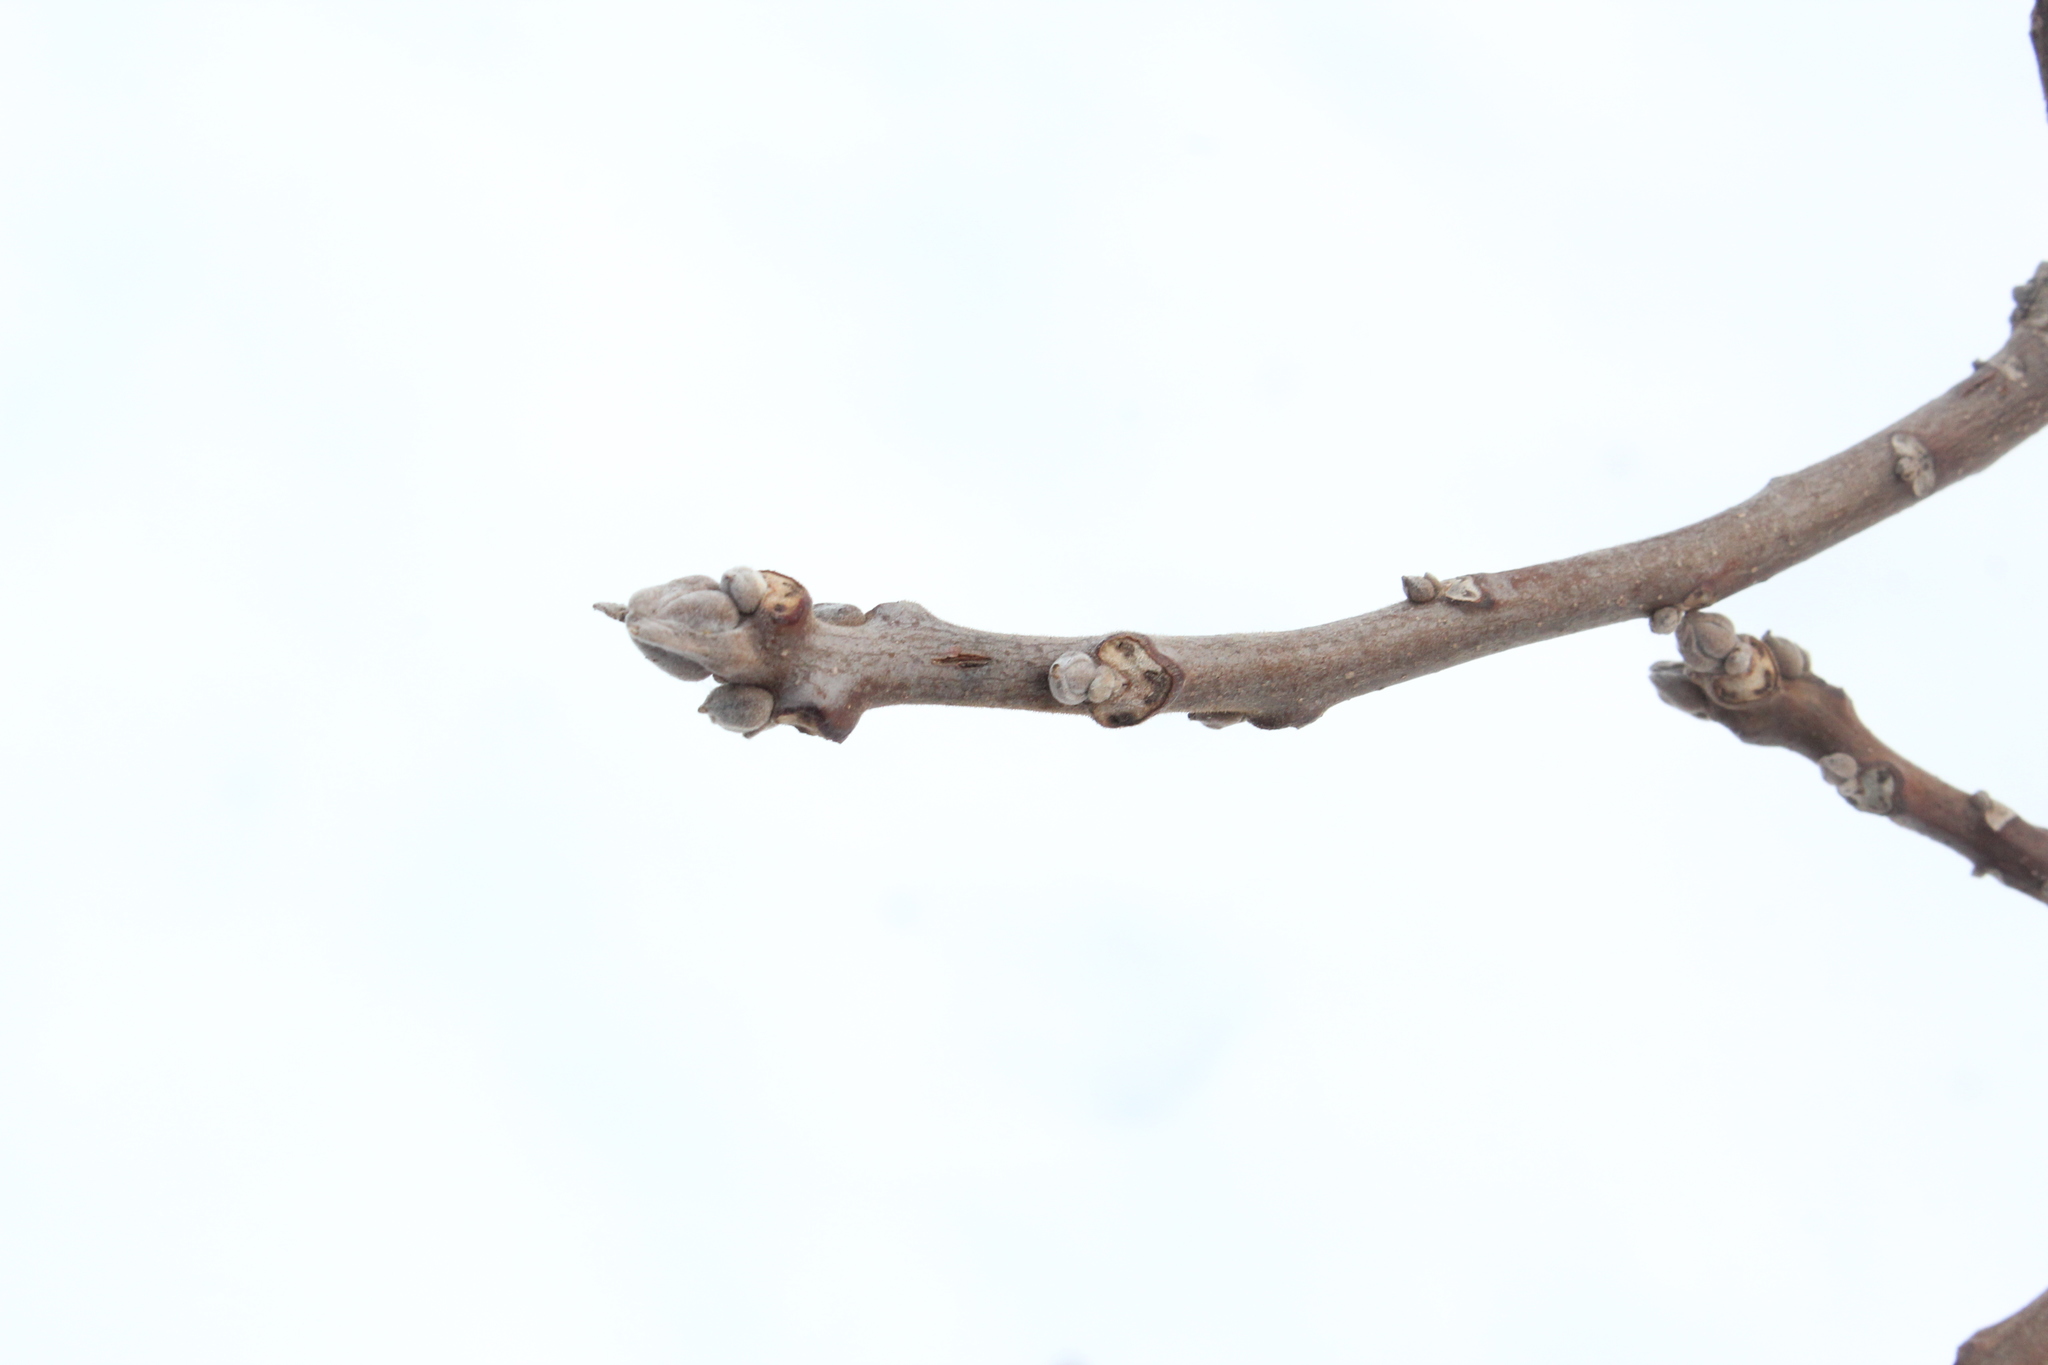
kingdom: Plantae
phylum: Tracheophyta
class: Magnoliopsida
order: Fagales
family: Juglandaceae
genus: Juglans
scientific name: Juglans nigra
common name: Black walnut
